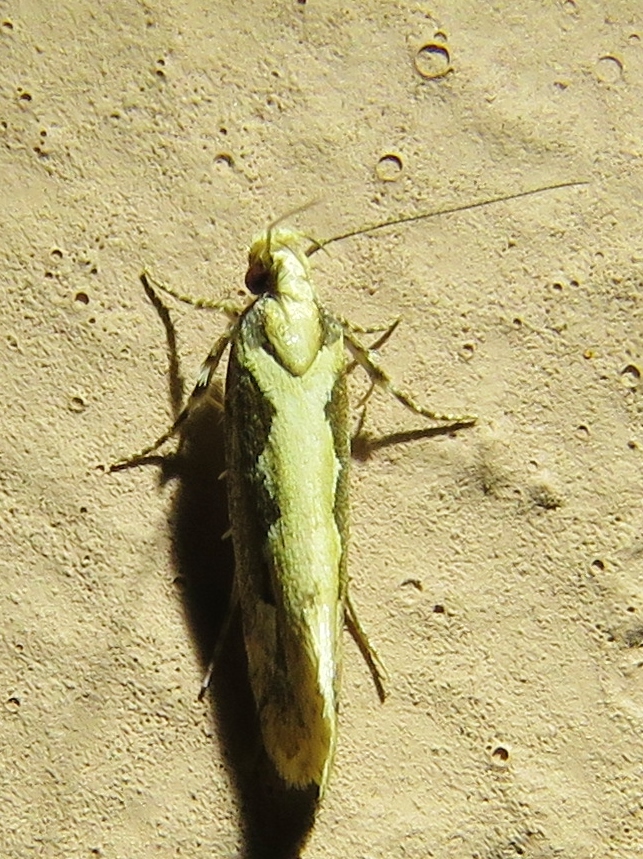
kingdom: Animalia
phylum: Arthropoda
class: Insecta
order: Lepidoptera
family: Plutellidae
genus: Plutella
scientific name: Plutella xylostella
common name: Diamond-back moth
